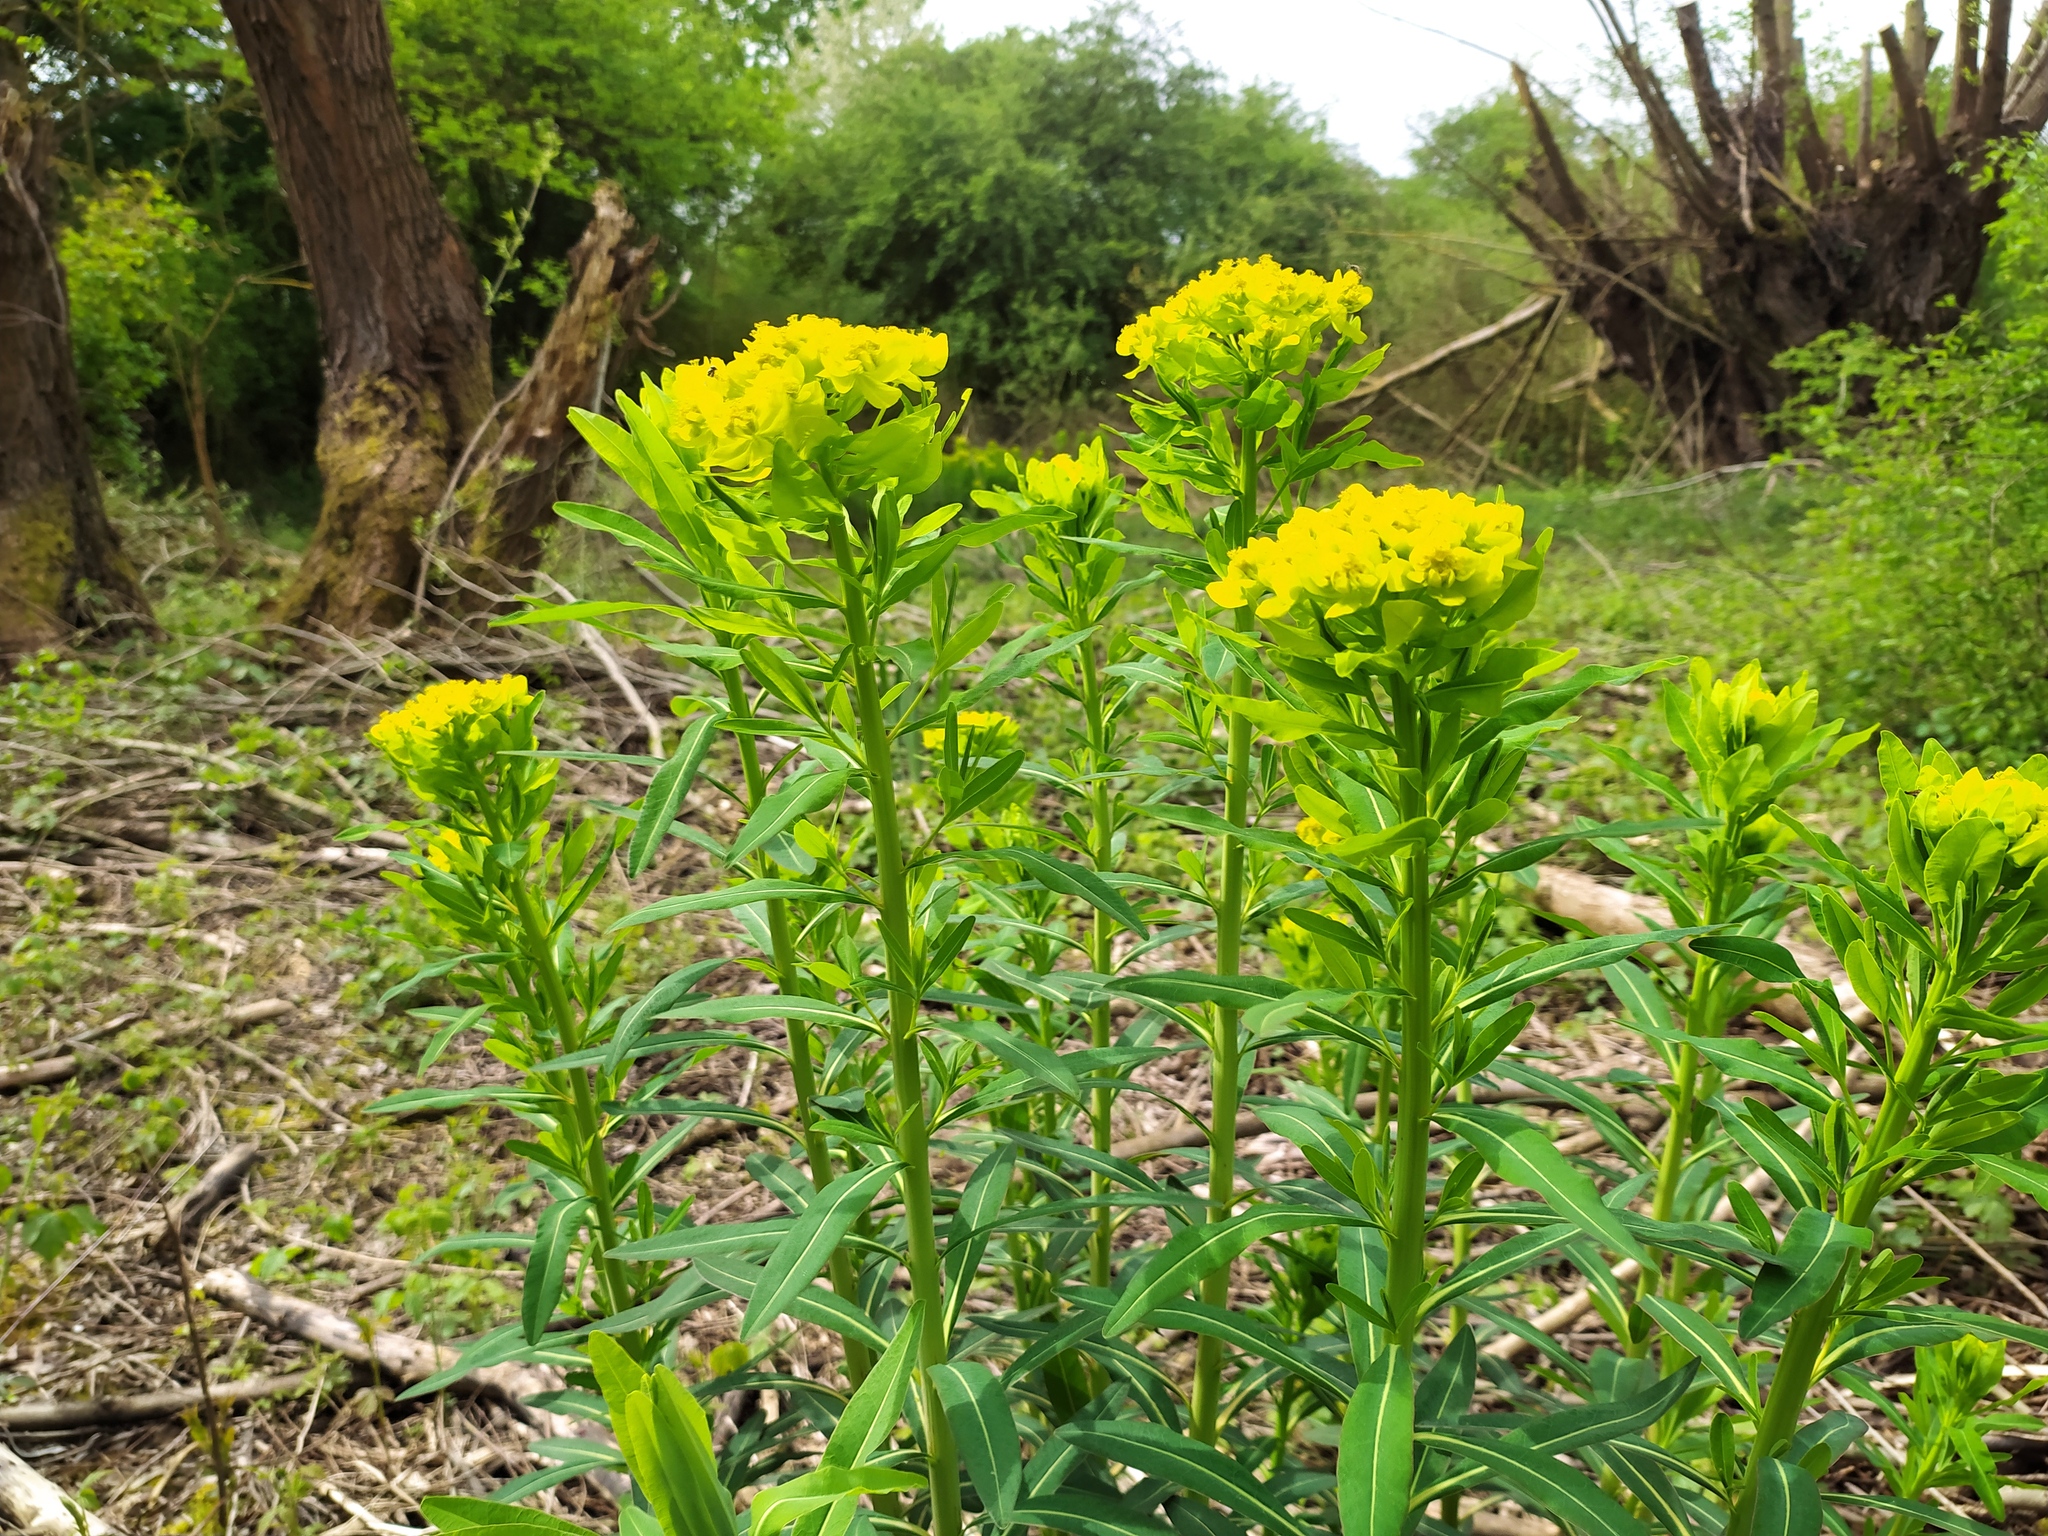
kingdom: Plantae
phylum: Tracheophyta
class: Magnoliopsida
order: Malpighiales
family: Euphorbiaceae
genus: Euphorbia
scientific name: Euphorbia palustris
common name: Marsh spurge
